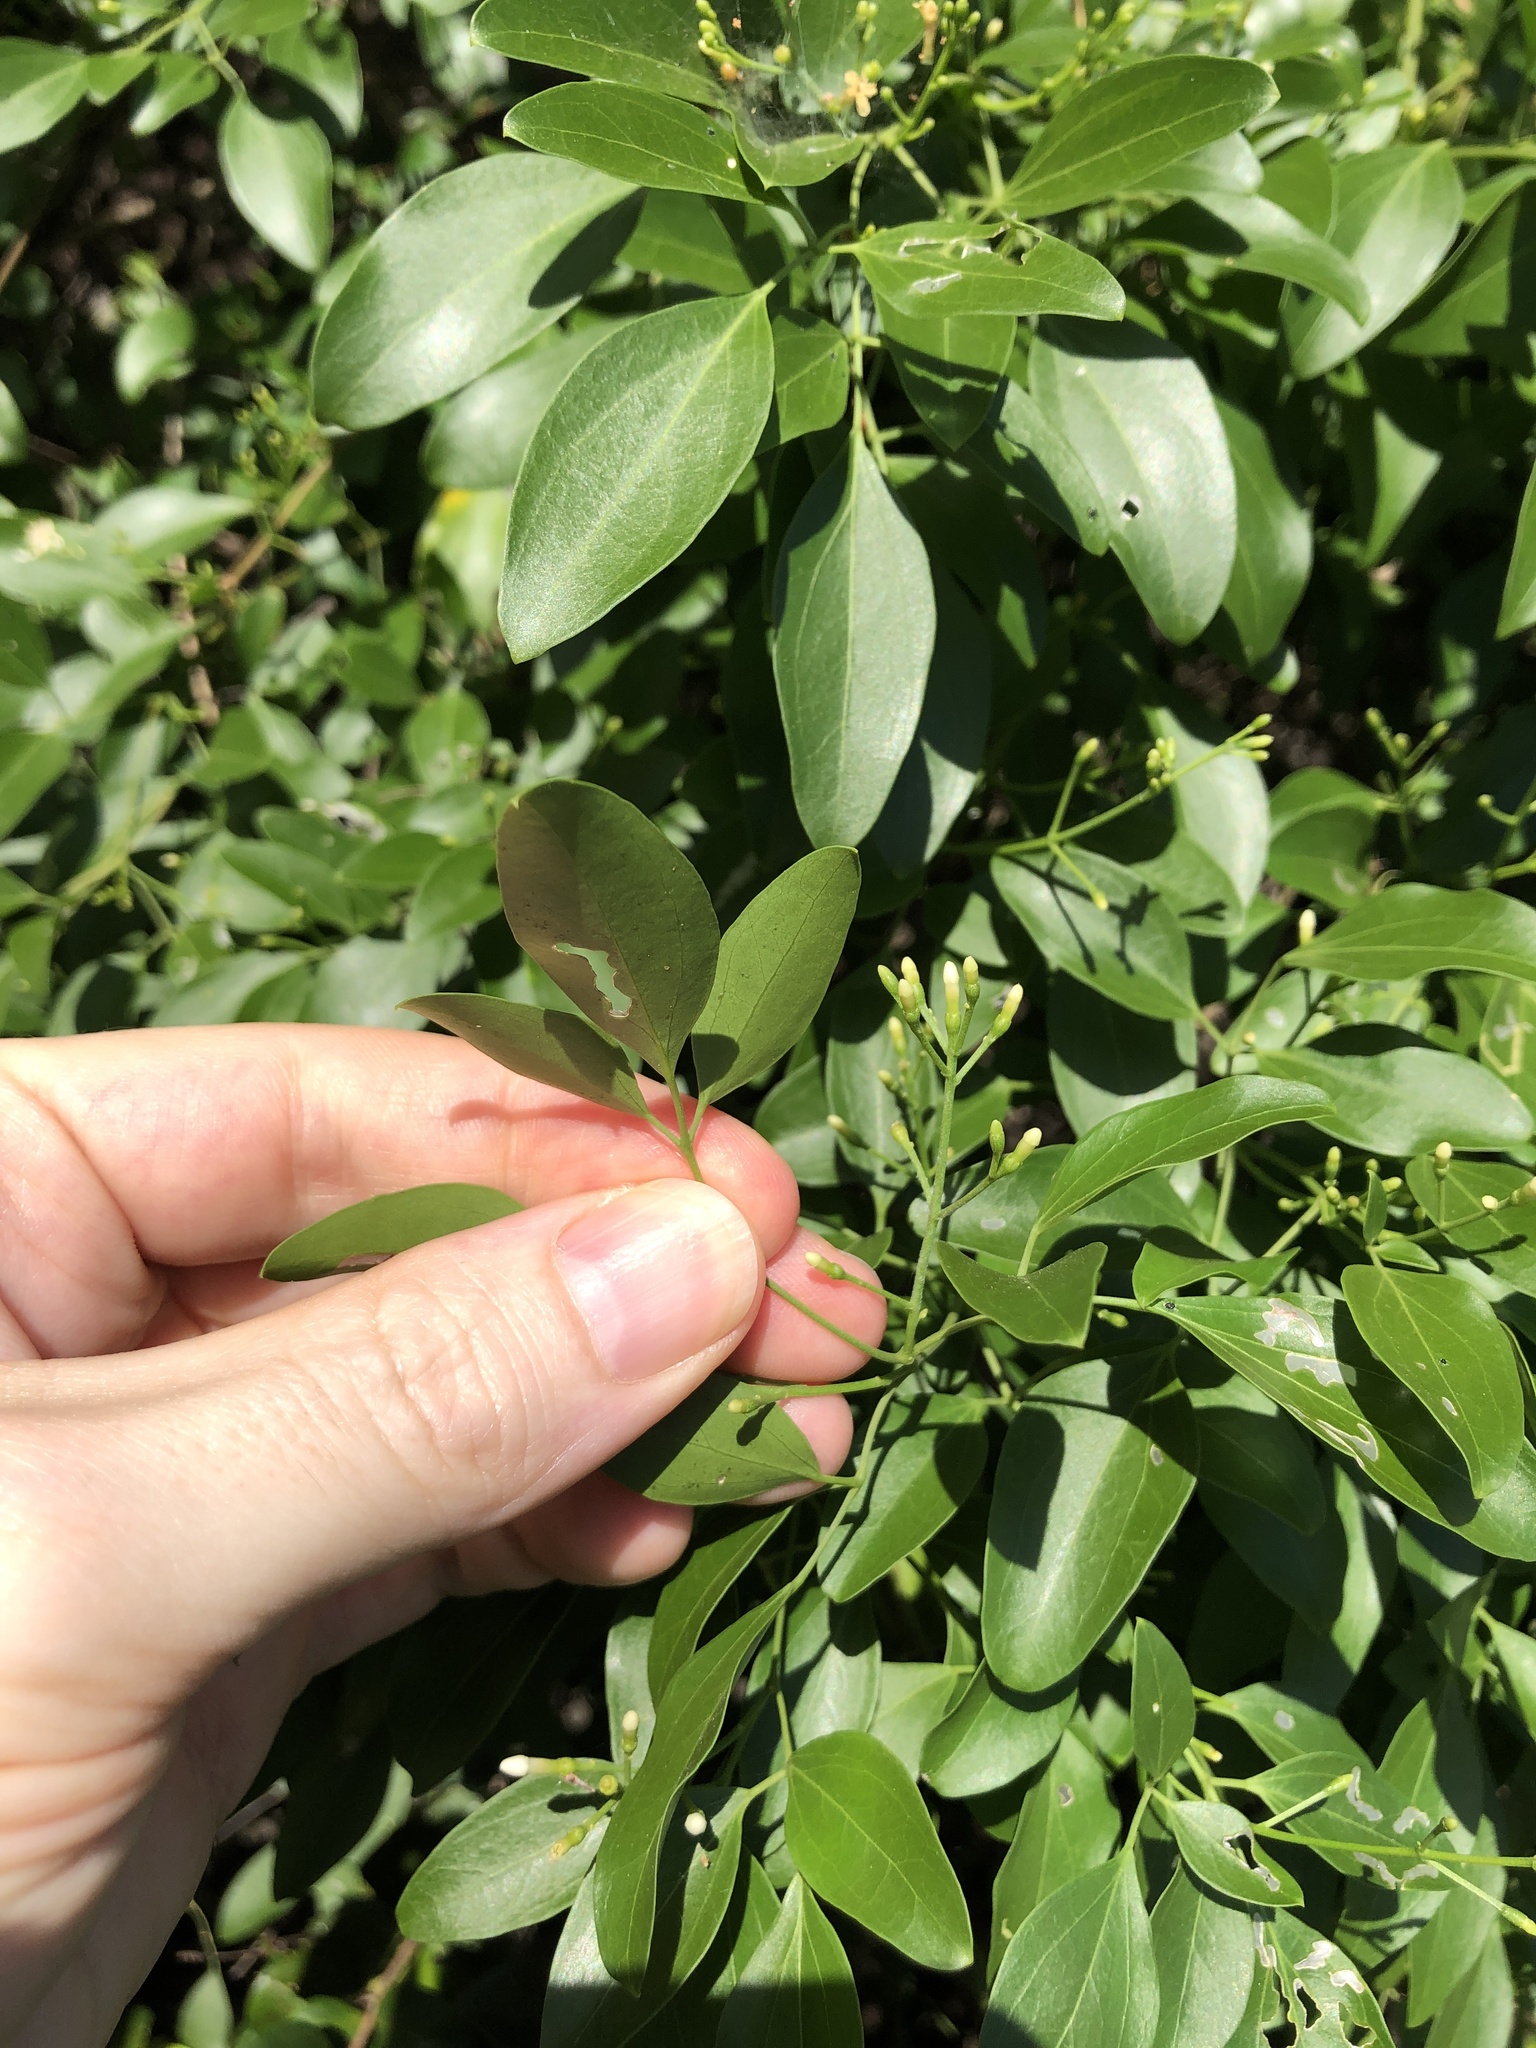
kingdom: Plantae
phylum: Tracheophyta
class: Magnoliopsida
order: Lamiales
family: Oleaceae
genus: Jasminum
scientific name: Jasminum didymum
